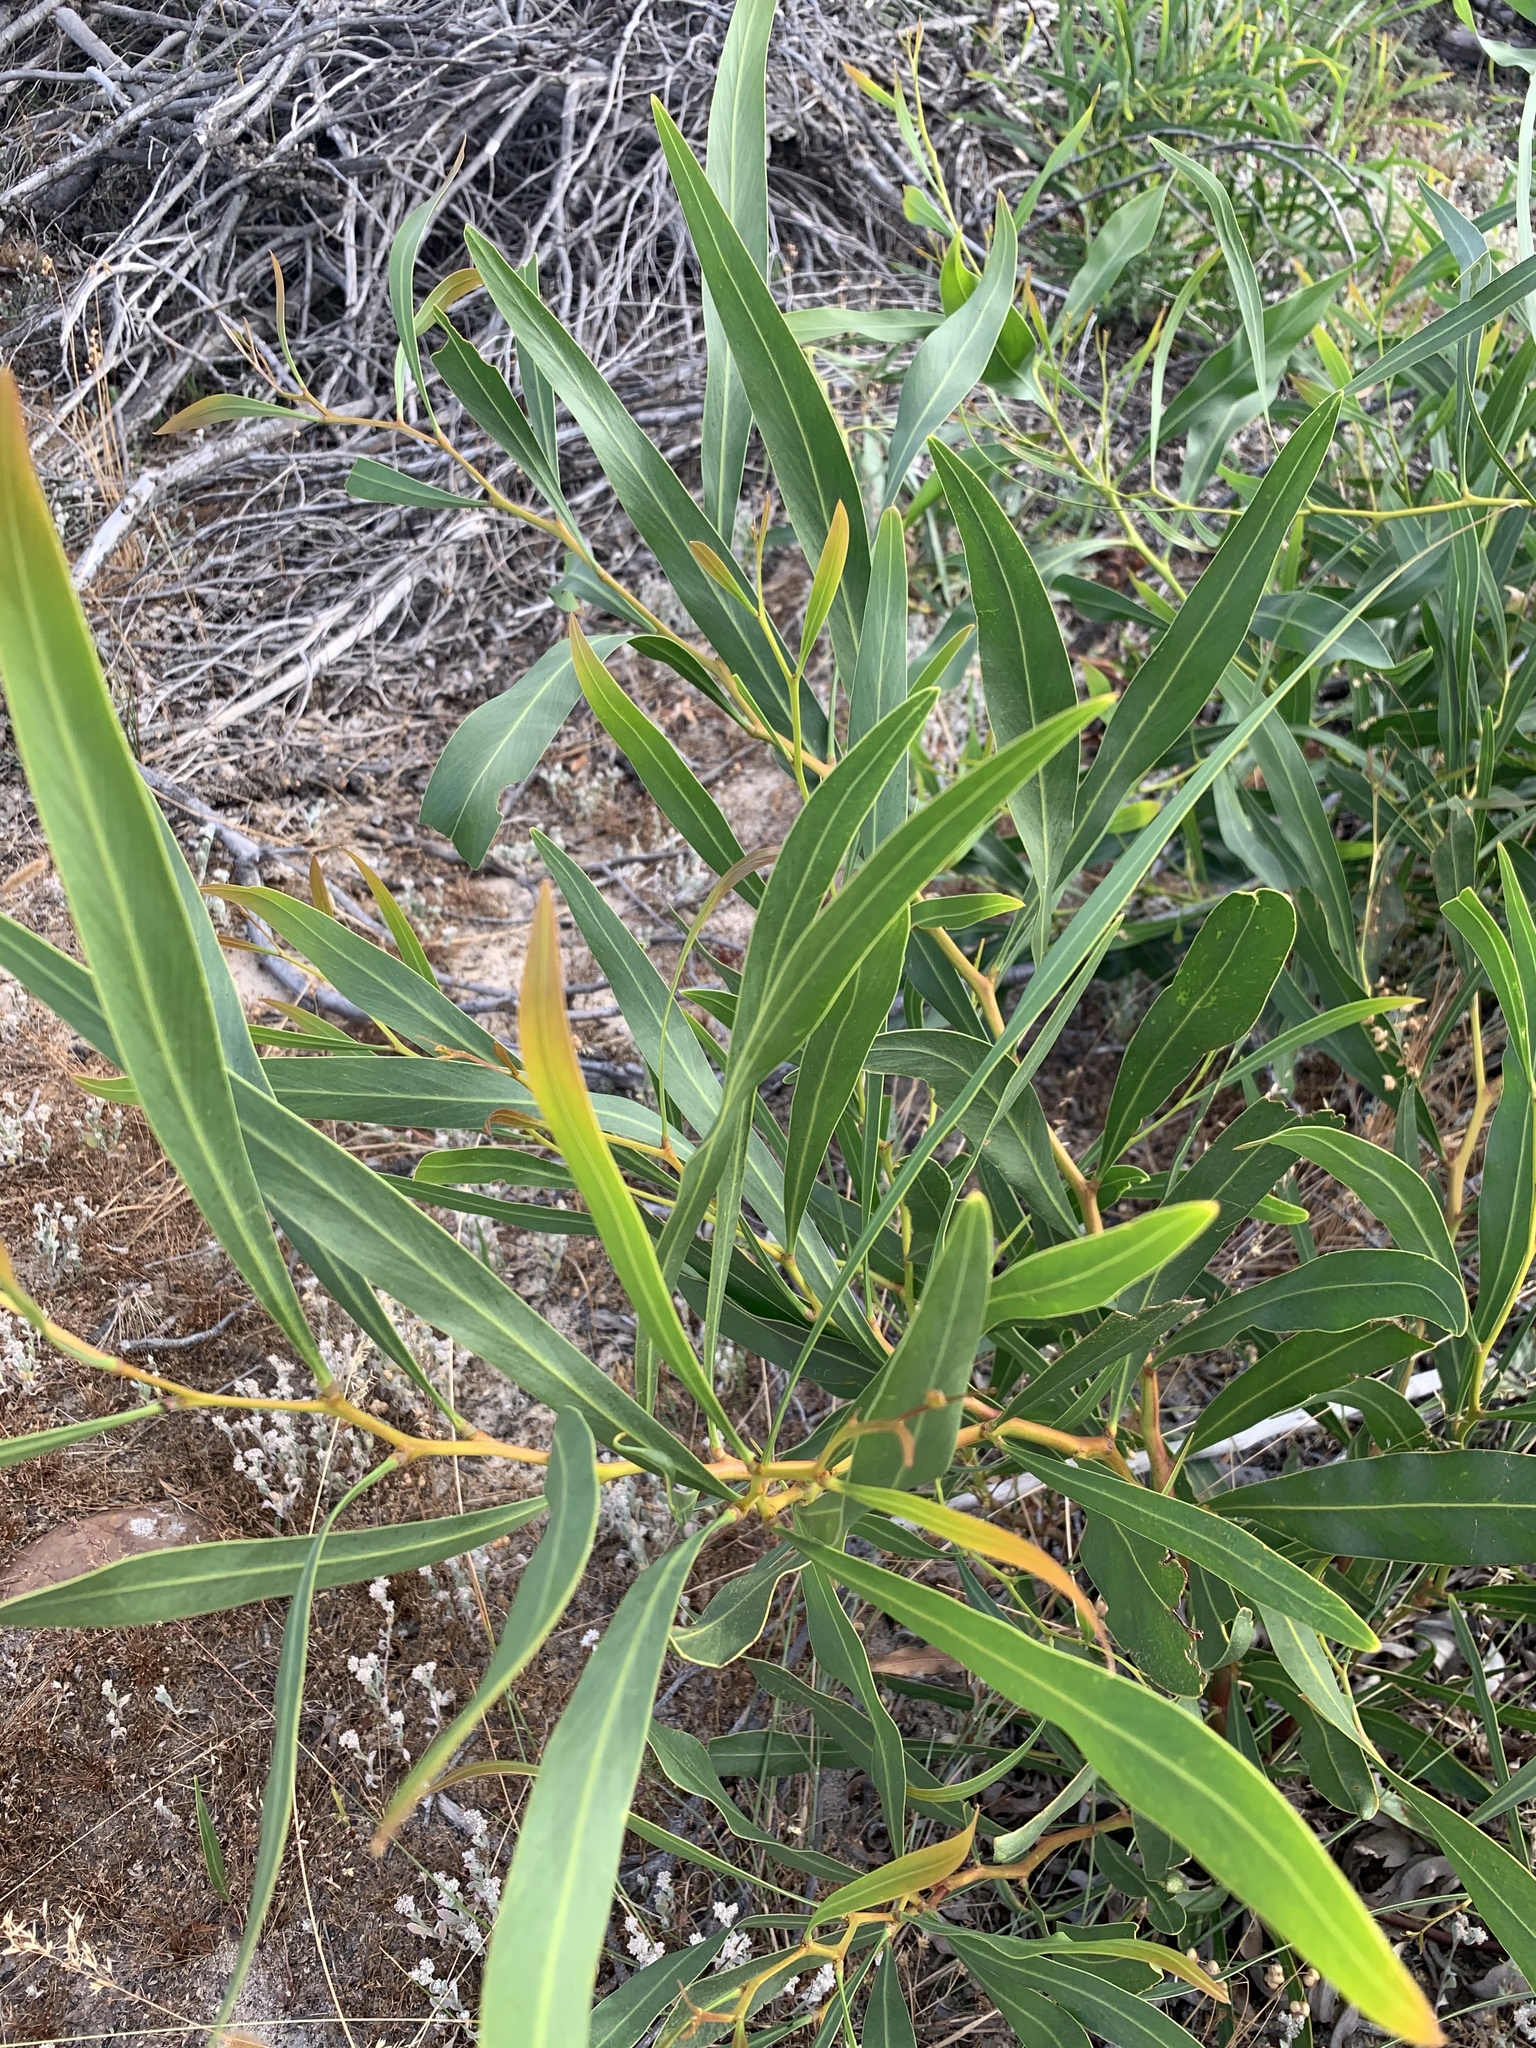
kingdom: Plantae
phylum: Tracheophyta
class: Magnoliopsida
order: Fabales
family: Fabaceae
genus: Acacia
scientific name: Acacia saligna
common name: Orange wattle
